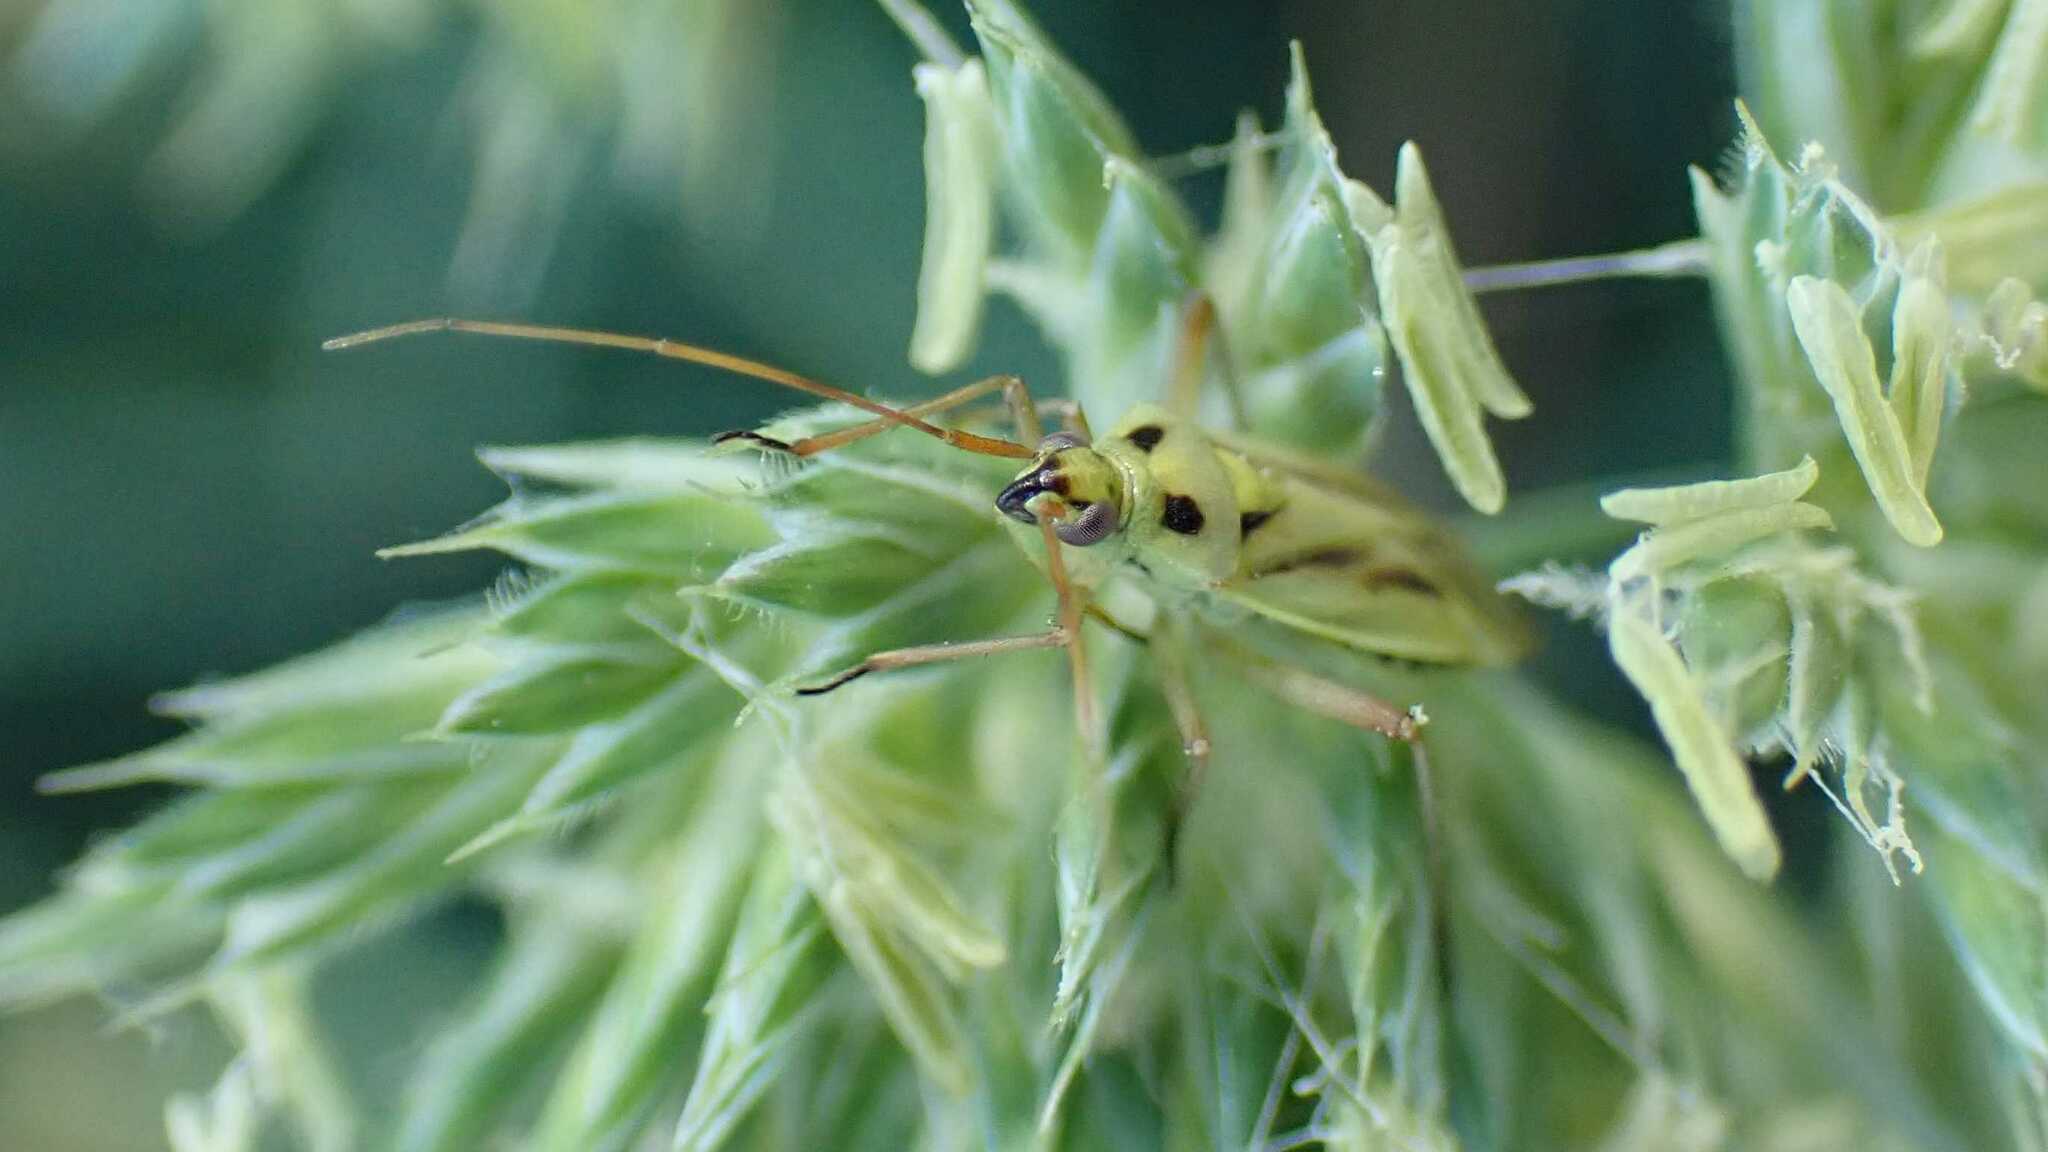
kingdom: Animalia
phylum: Arthropoda
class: Insecta
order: Hemiptera
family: Miridae
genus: Stenotus
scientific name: Stenotus binotatus
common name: Plant bug
